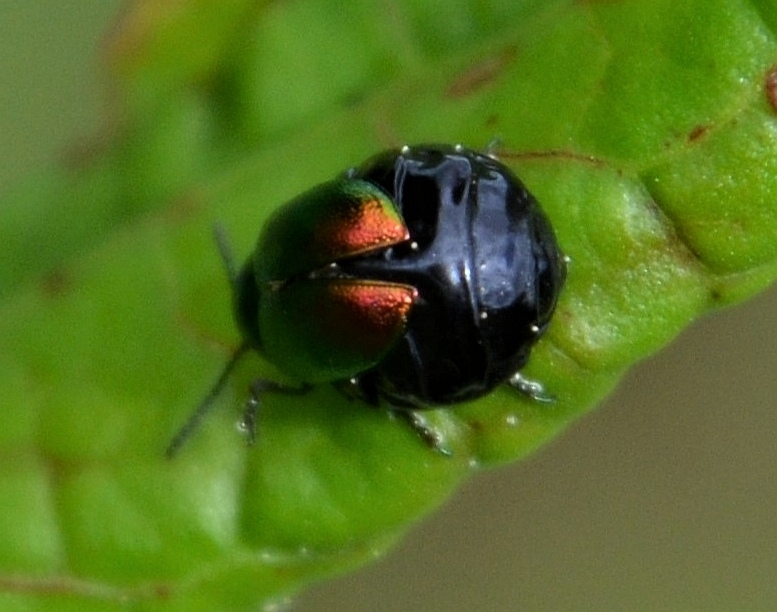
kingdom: Animalia
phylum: Arthropoda
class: Insecta
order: Coleoptera
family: Chrysomelidae
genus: Gastrophysa
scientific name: Gastrophysa viridula
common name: Green dock beetle
